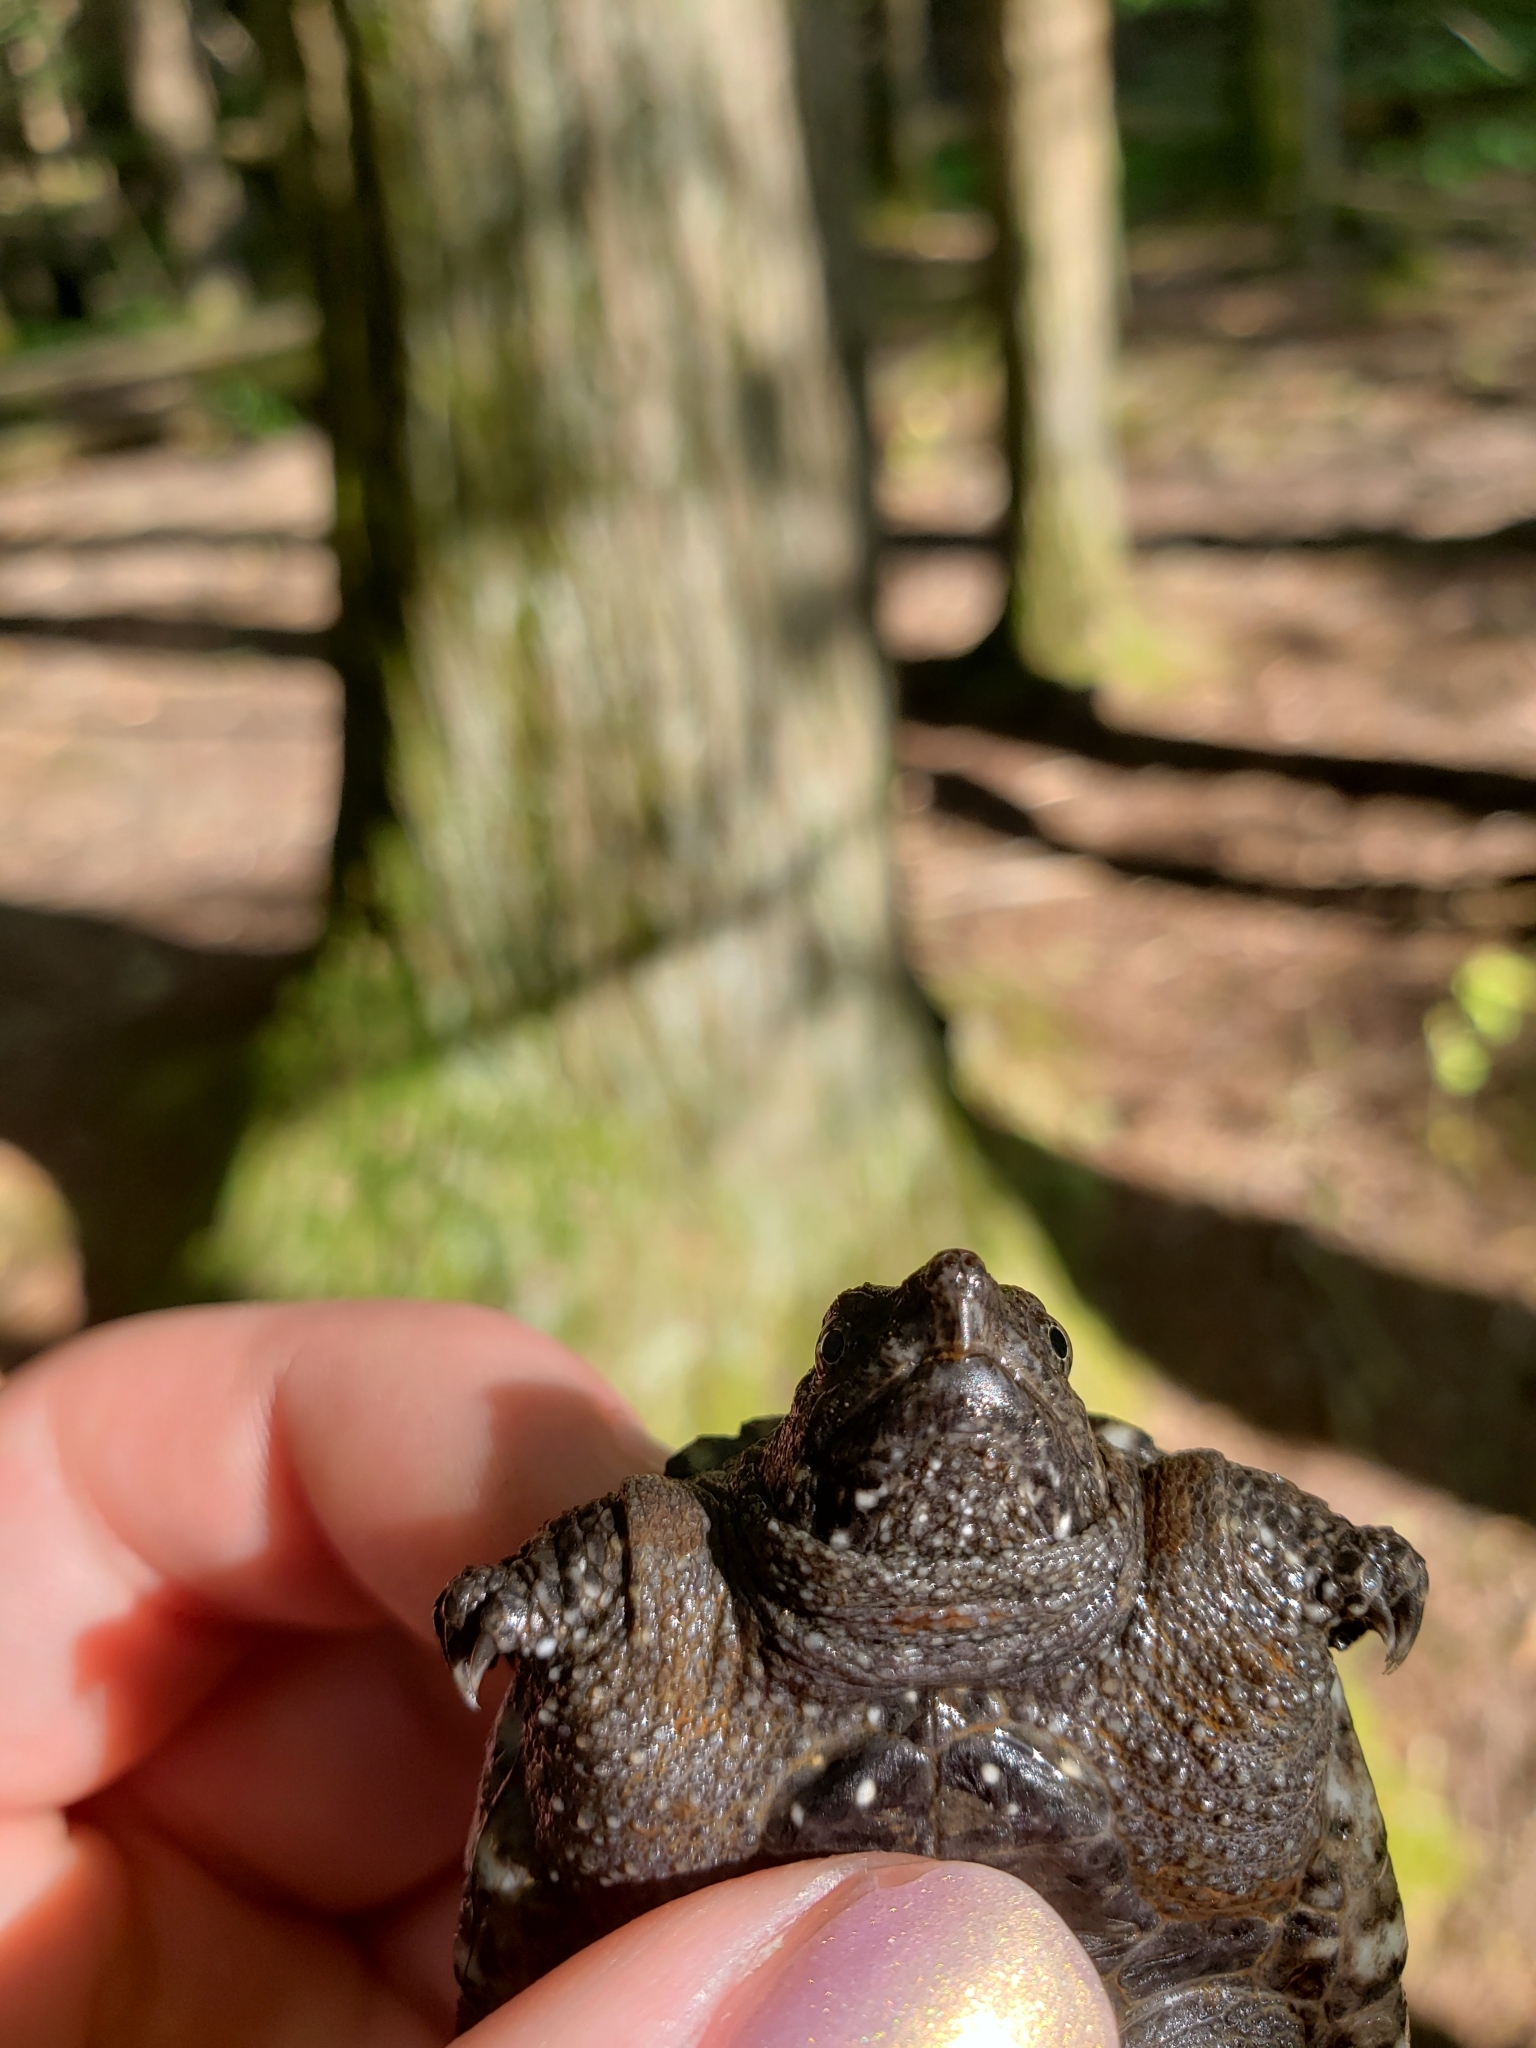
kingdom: Animalia
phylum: Chordata
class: Testudines
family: Chelydridae
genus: Chelydra
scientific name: Chelydra serpentina
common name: Common snapping turtle
